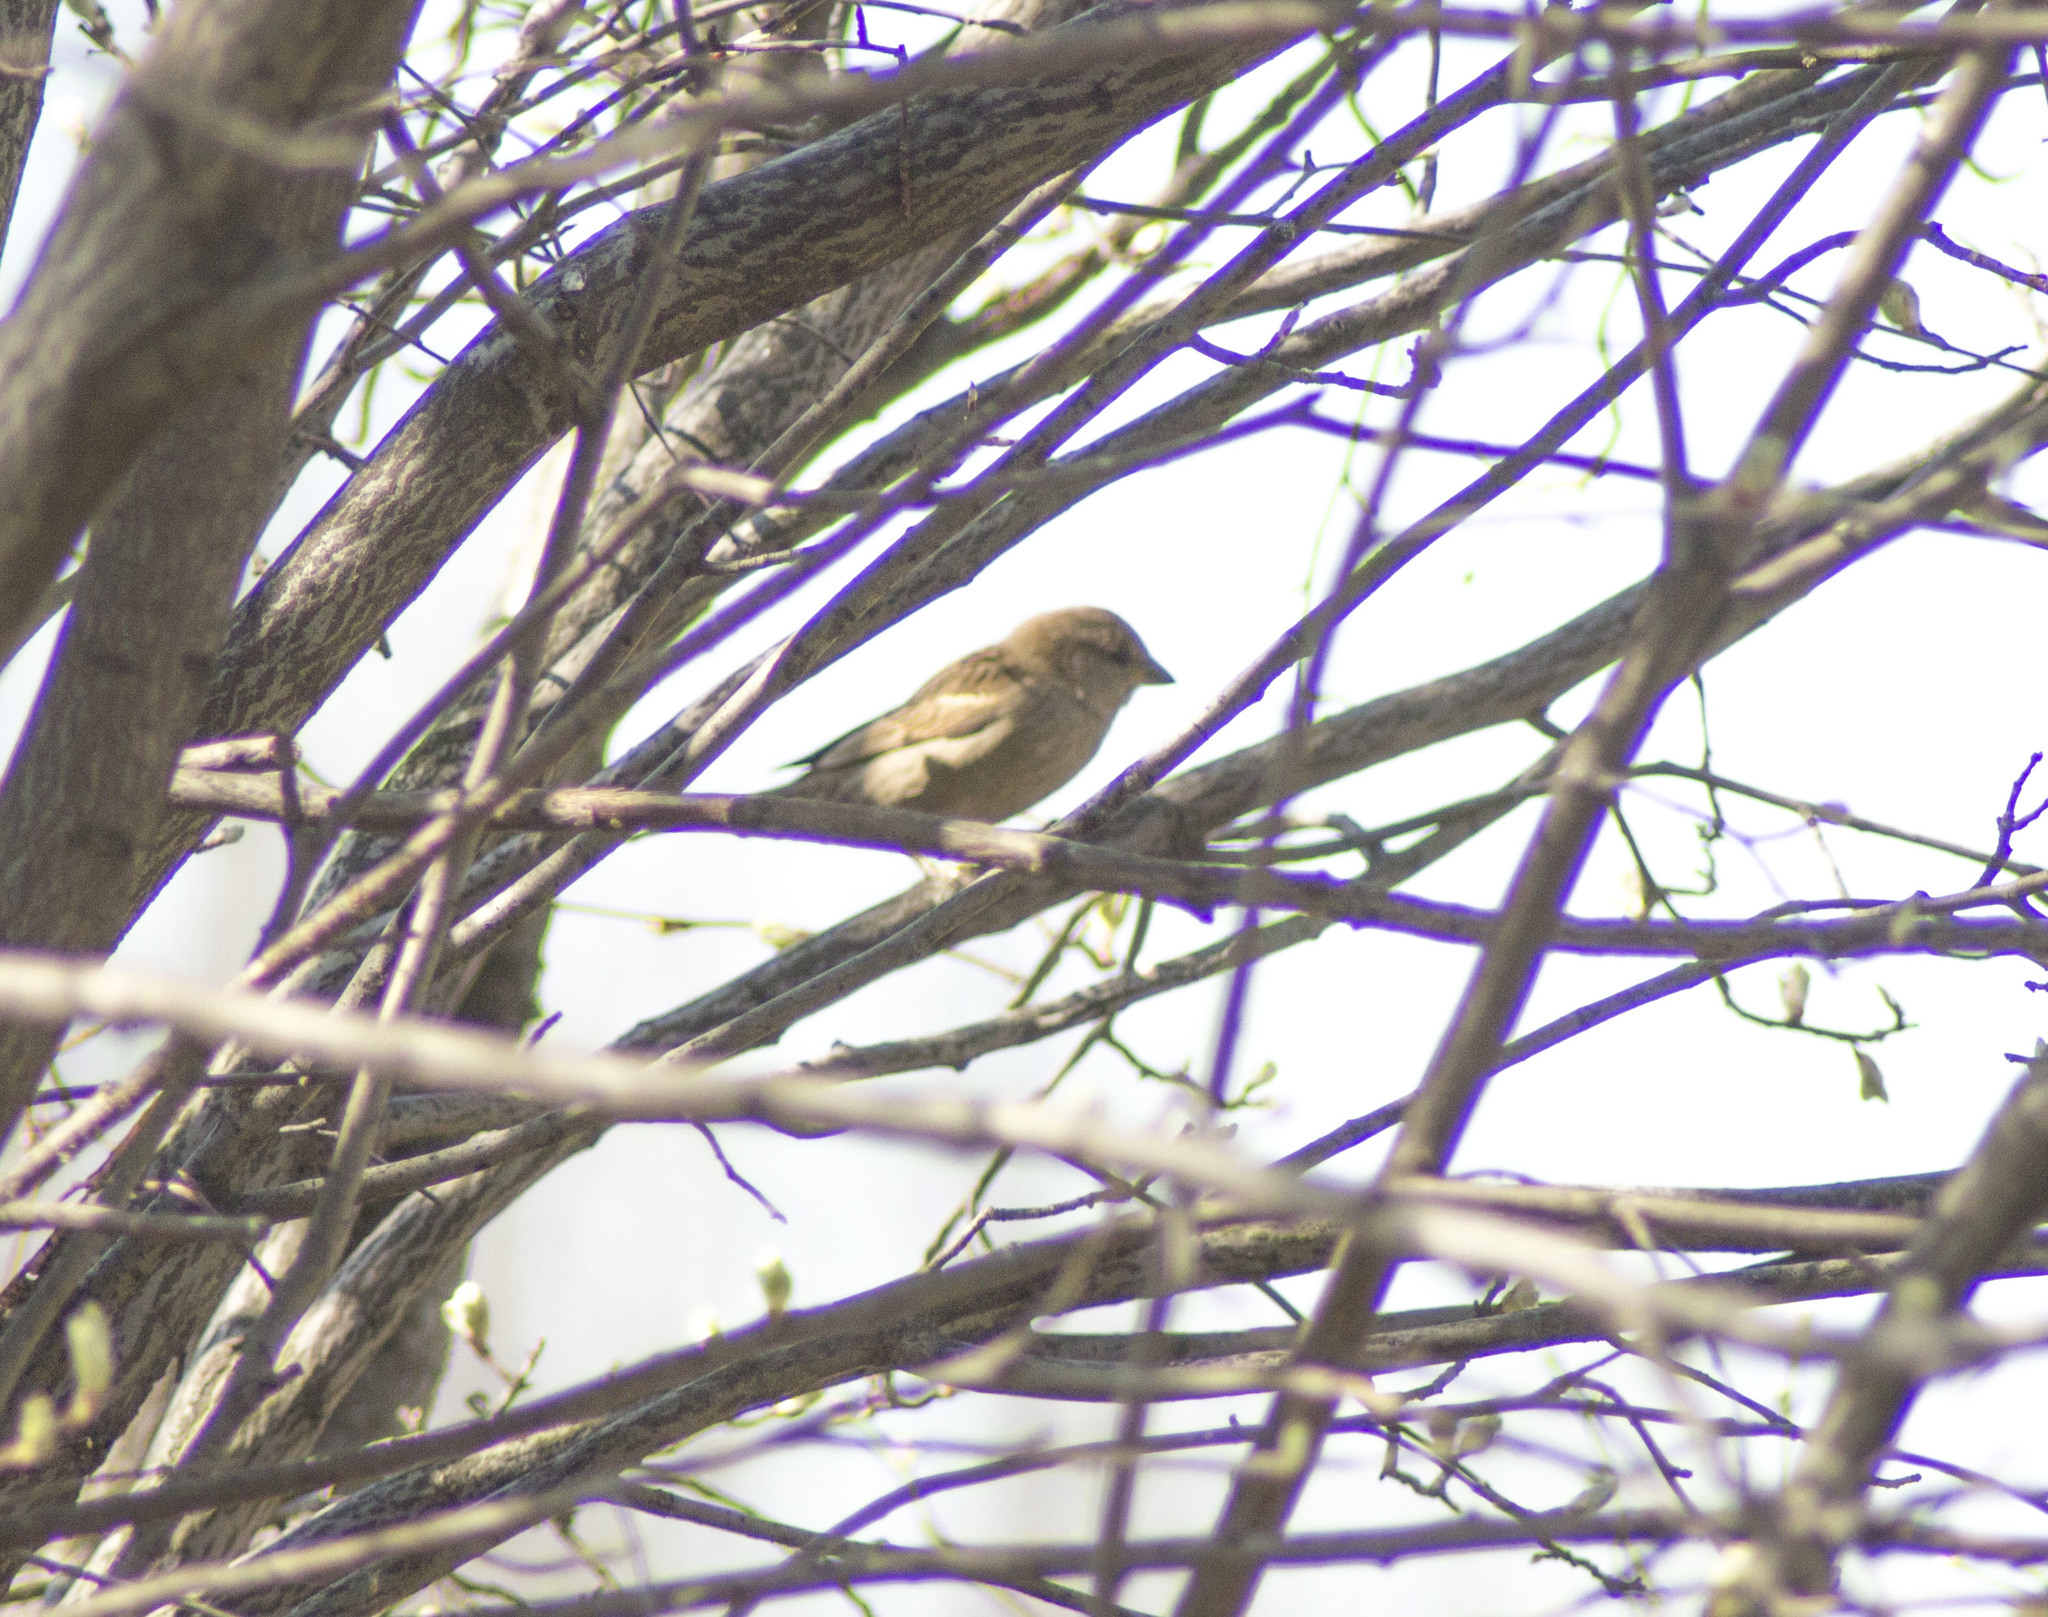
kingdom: Animalia
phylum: Chordata
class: Aves
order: Passeriformes
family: Passeridae
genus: Passer
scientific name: Passer montanus
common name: Eurasian tree sparrow
